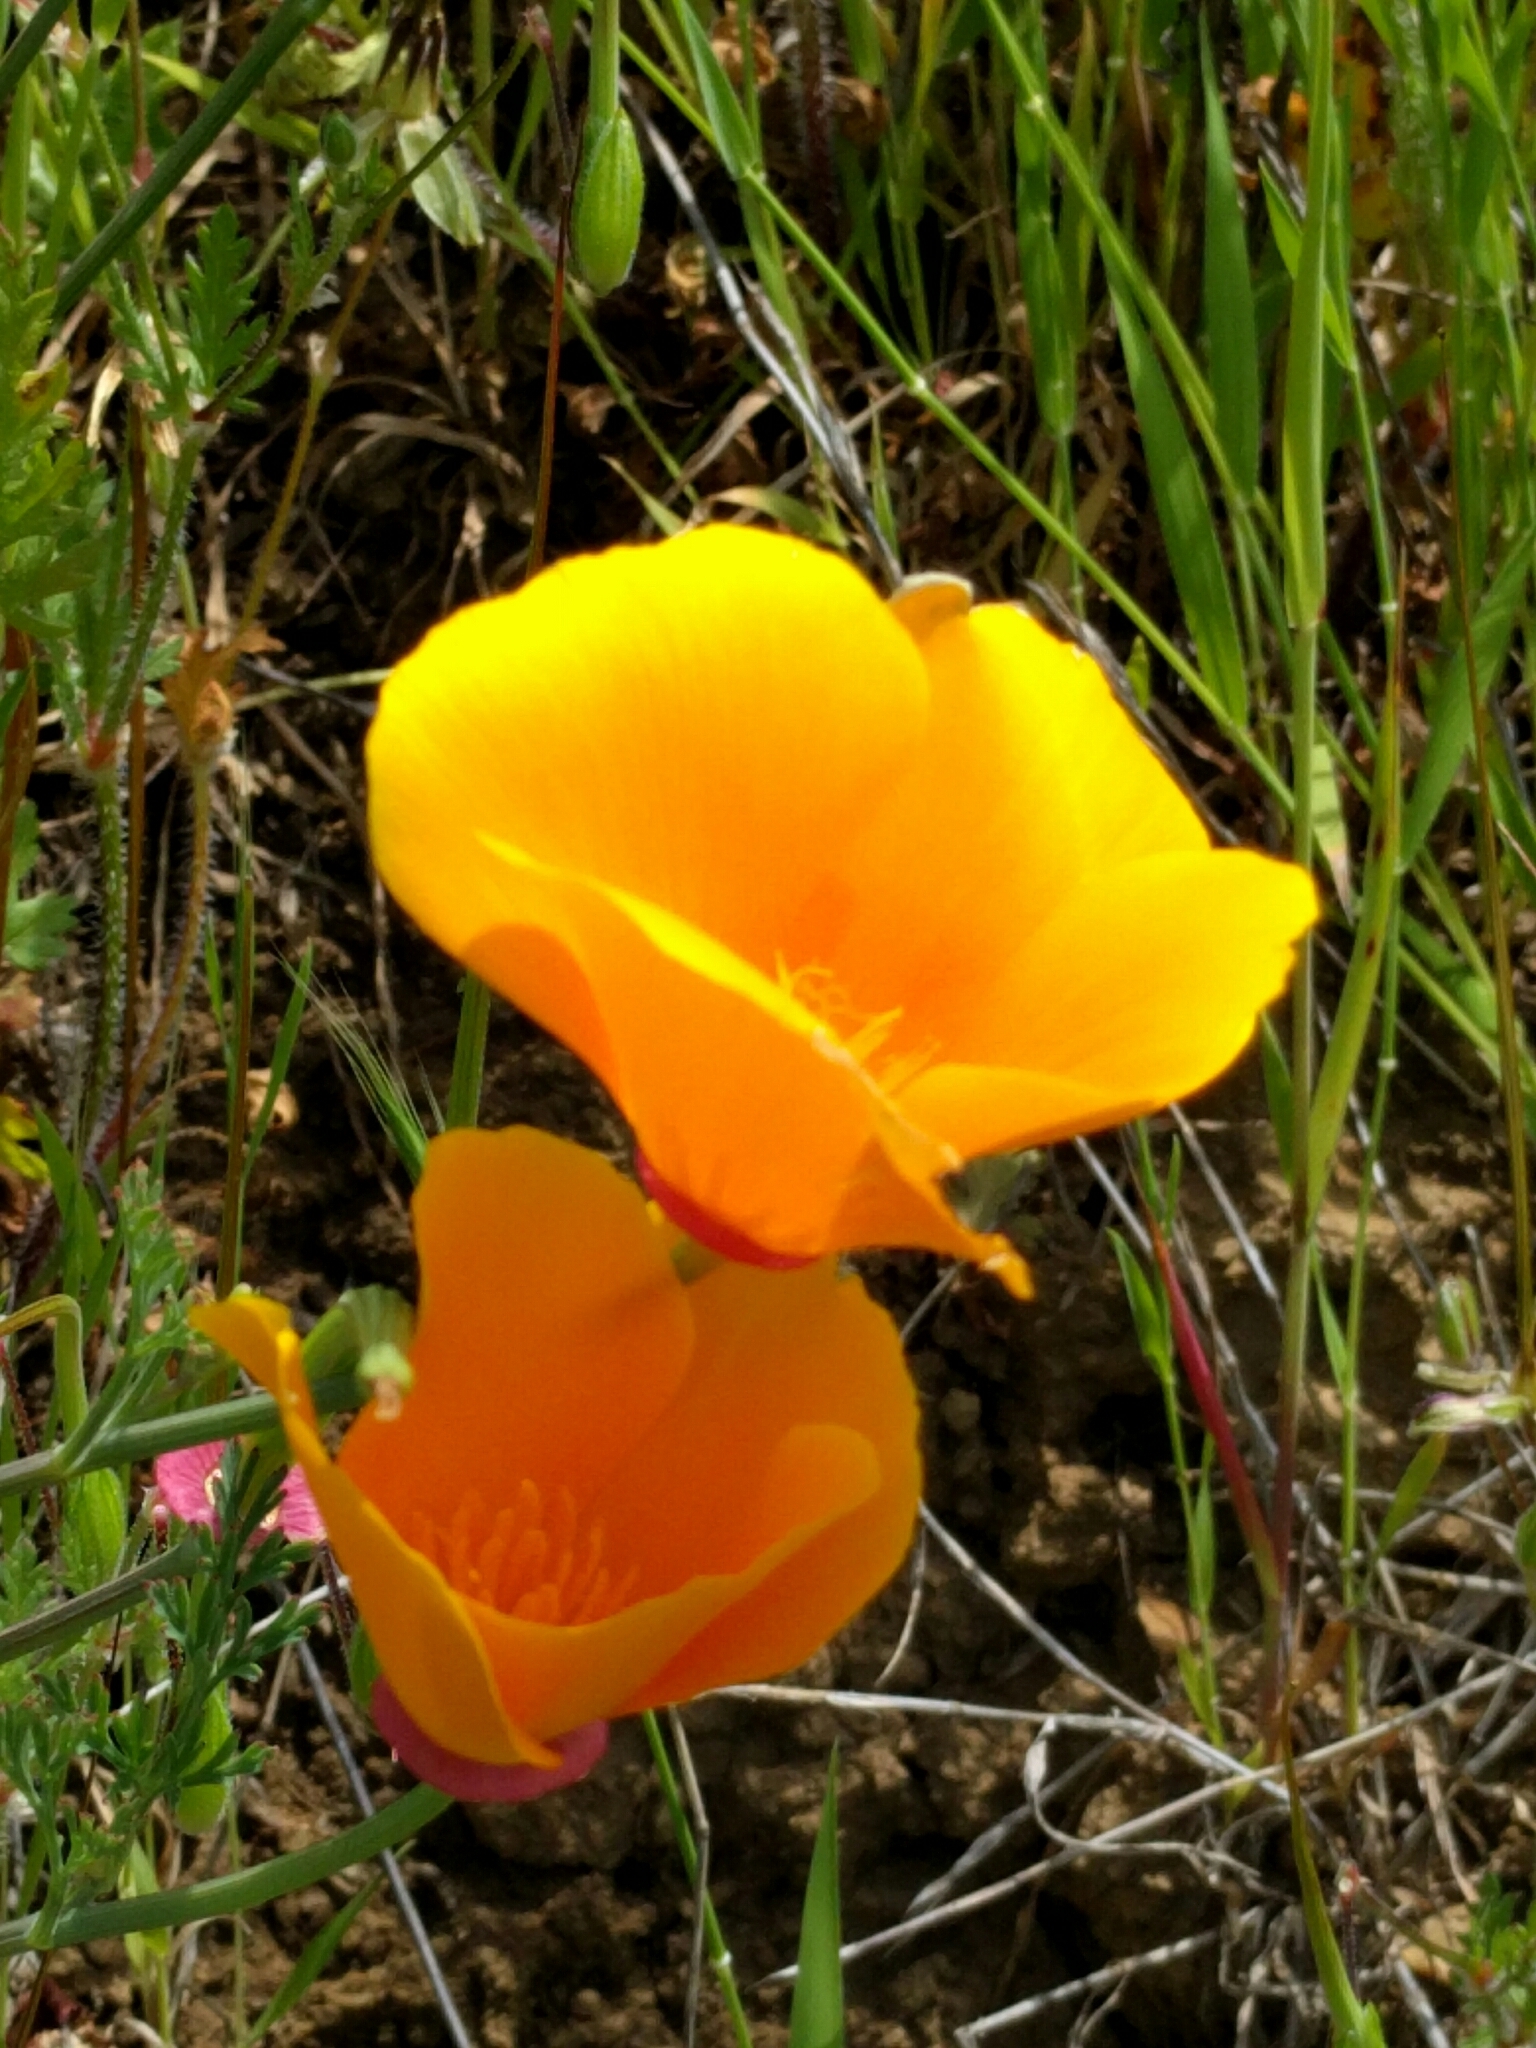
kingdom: Plantae
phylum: Tracheophyta
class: Magnoliopsida
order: Ranunculales
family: Papaveraceae
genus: Eschscholzia
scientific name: Eschscholzia californica
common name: California poppy
